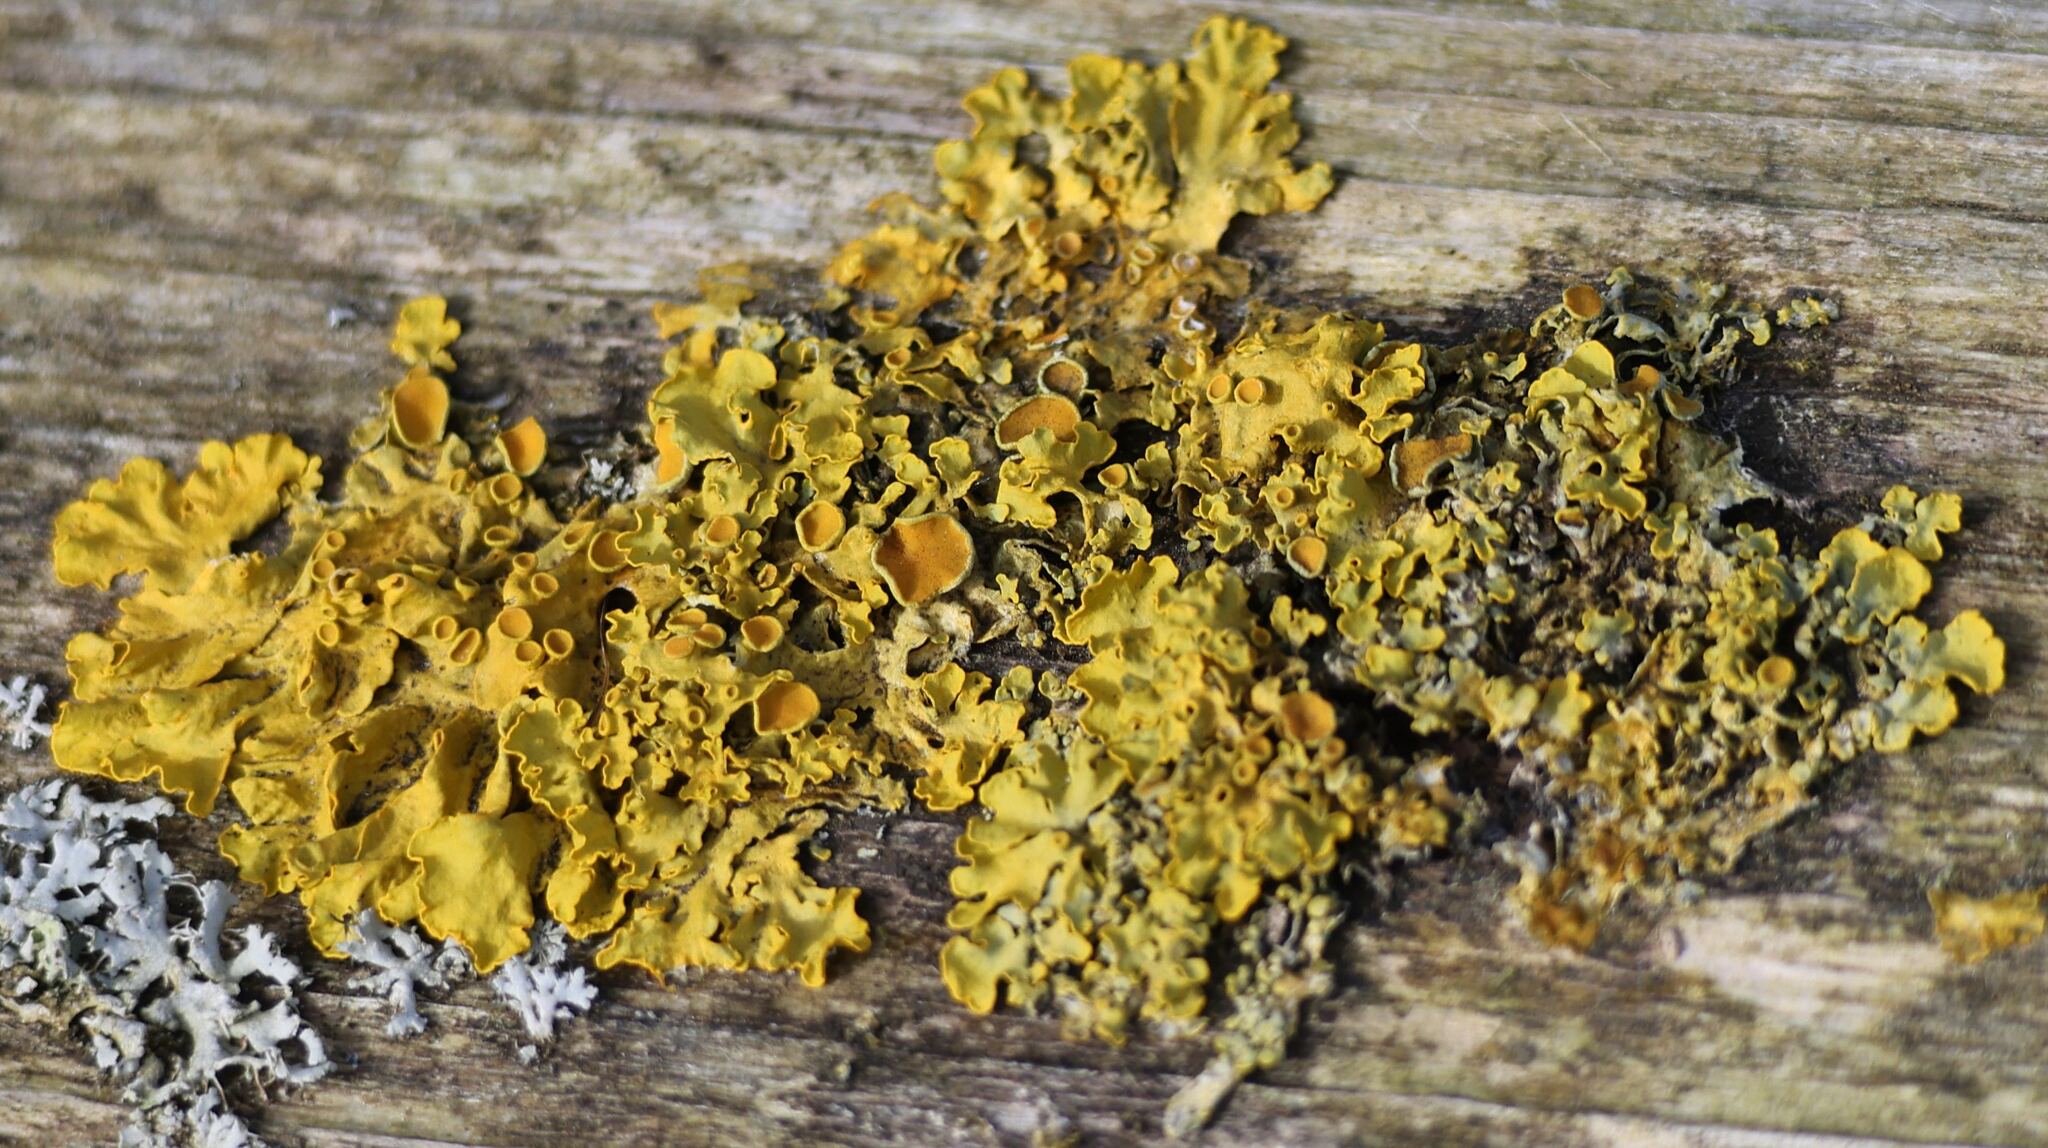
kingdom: Fungi
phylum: Ascomycota
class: Lecanoromycetes
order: Teloschistales
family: Teloschistaceae
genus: Xanthoria
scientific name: Xanthoria parietina
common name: Common orange lichen
